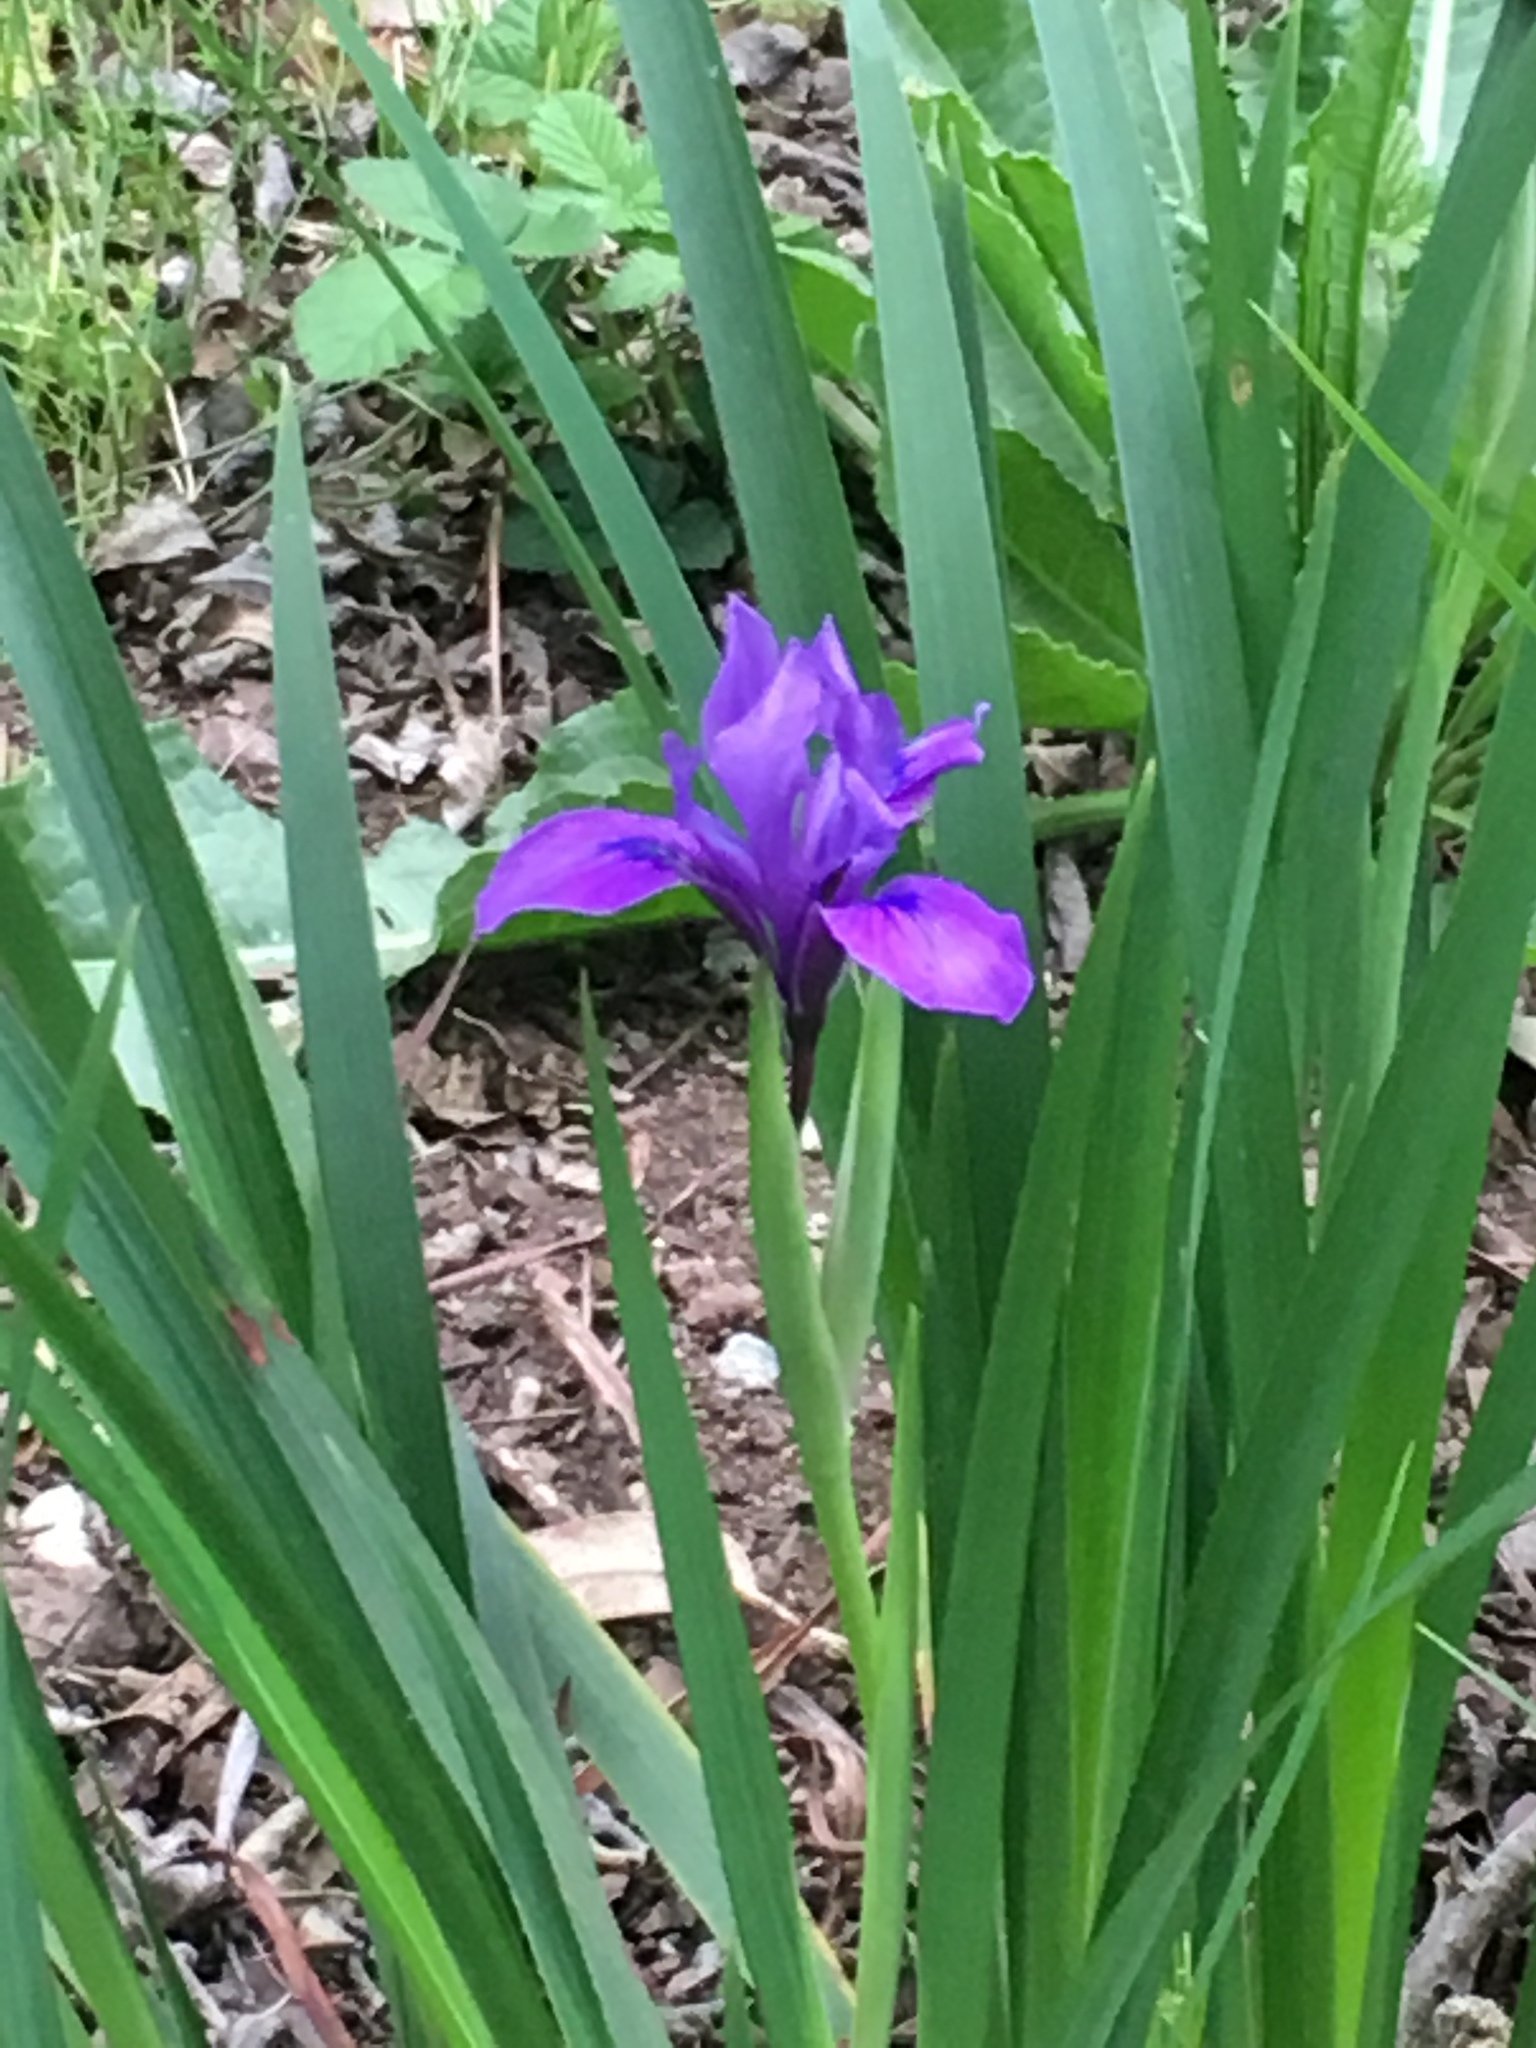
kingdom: Plantae
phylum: Tracheophyta
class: Liliopsida
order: Asparagales
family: Iridaceae
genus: Iris
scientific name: Iris douglasiana
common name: Marin iris
